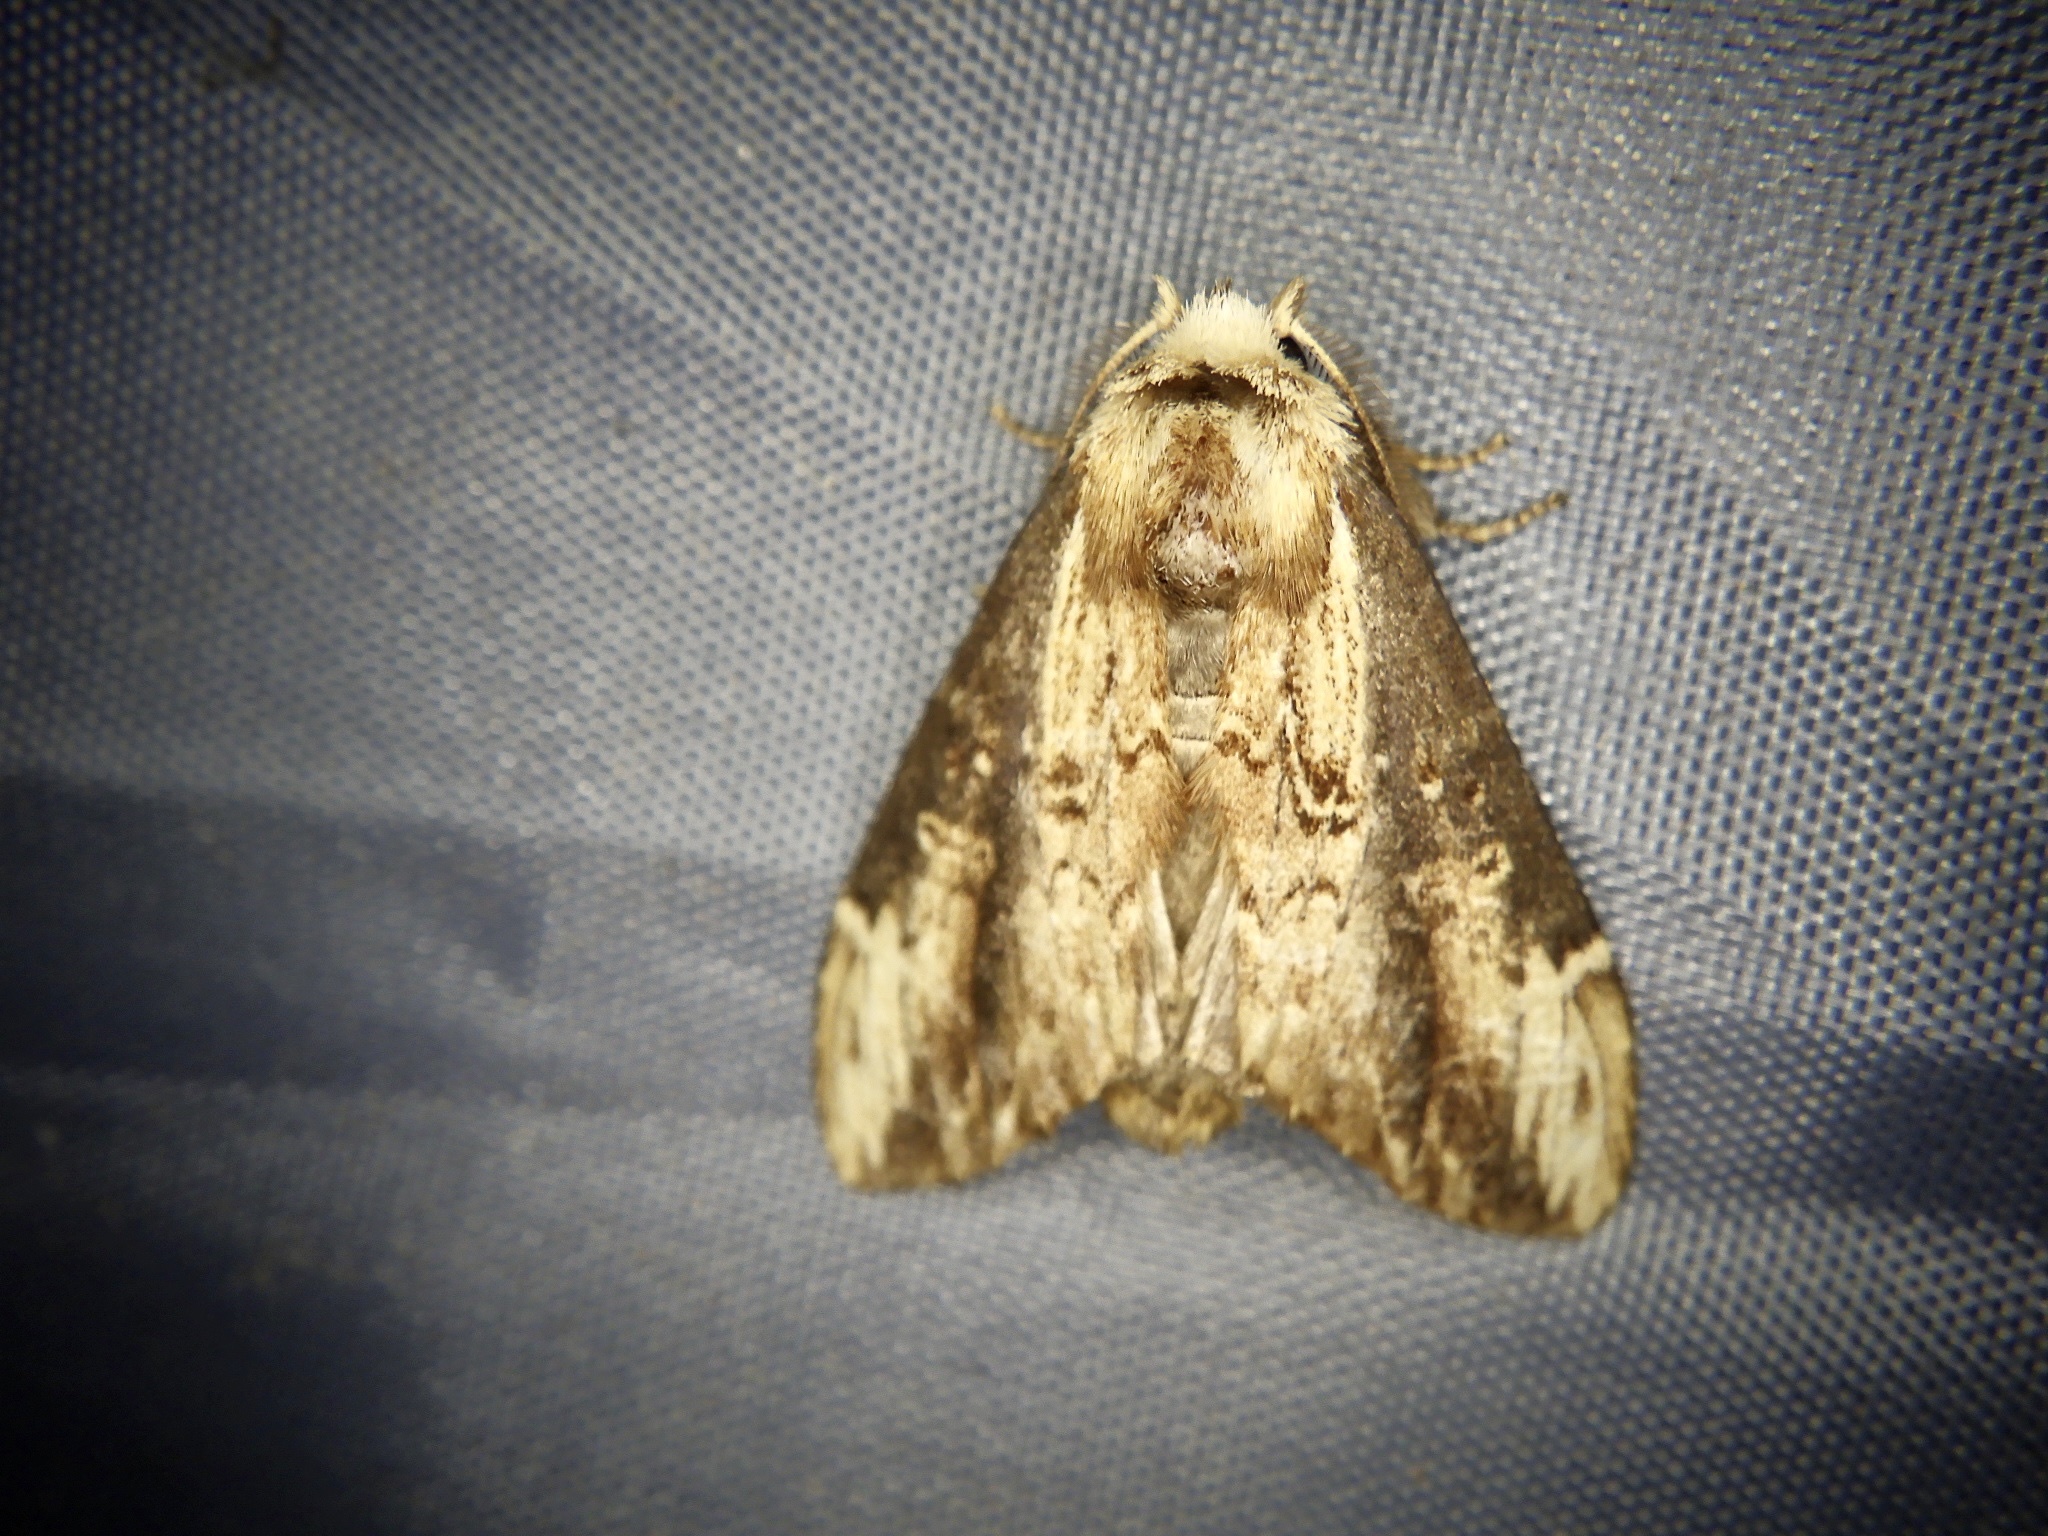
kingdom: Animalia
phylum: Arthropoda
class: Insecta
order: Lepidoptera
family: Notodontidae
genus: Hexafrenum
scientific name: Hexafrenum leucodera
